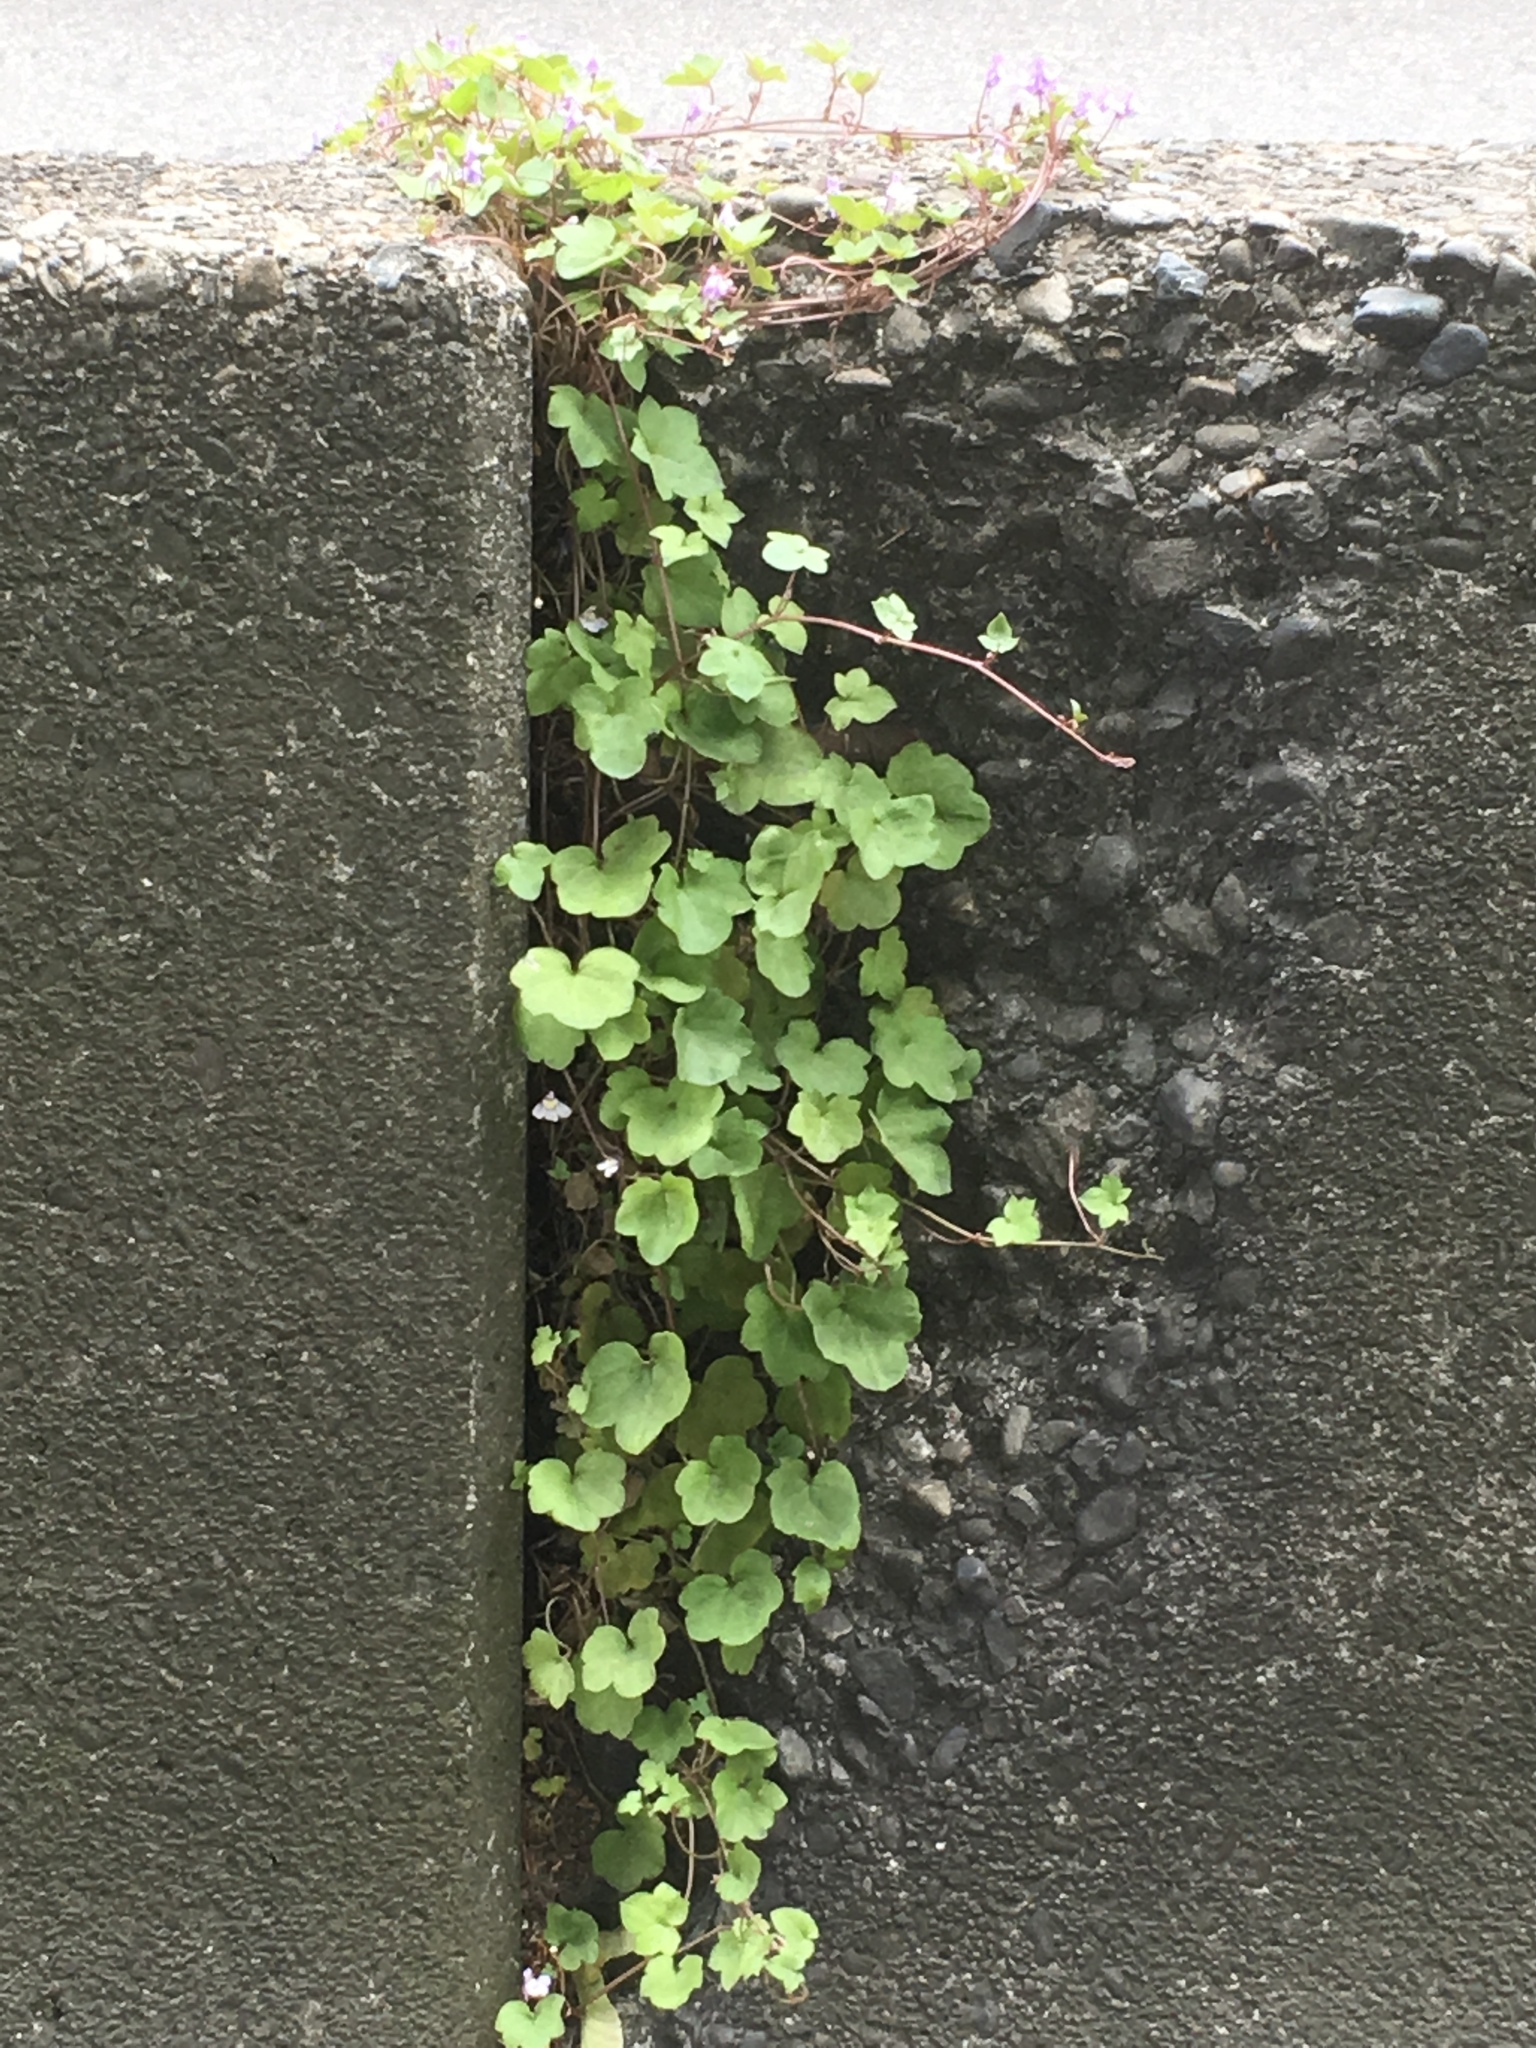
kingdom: Plantae
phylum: Tracheophyta
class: Magnoliopsida
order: Lamiales
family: Plantaginaceae
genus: Cymbalaria
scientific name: Cymbalaria muralis
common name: Ivy-leaved toadflax
